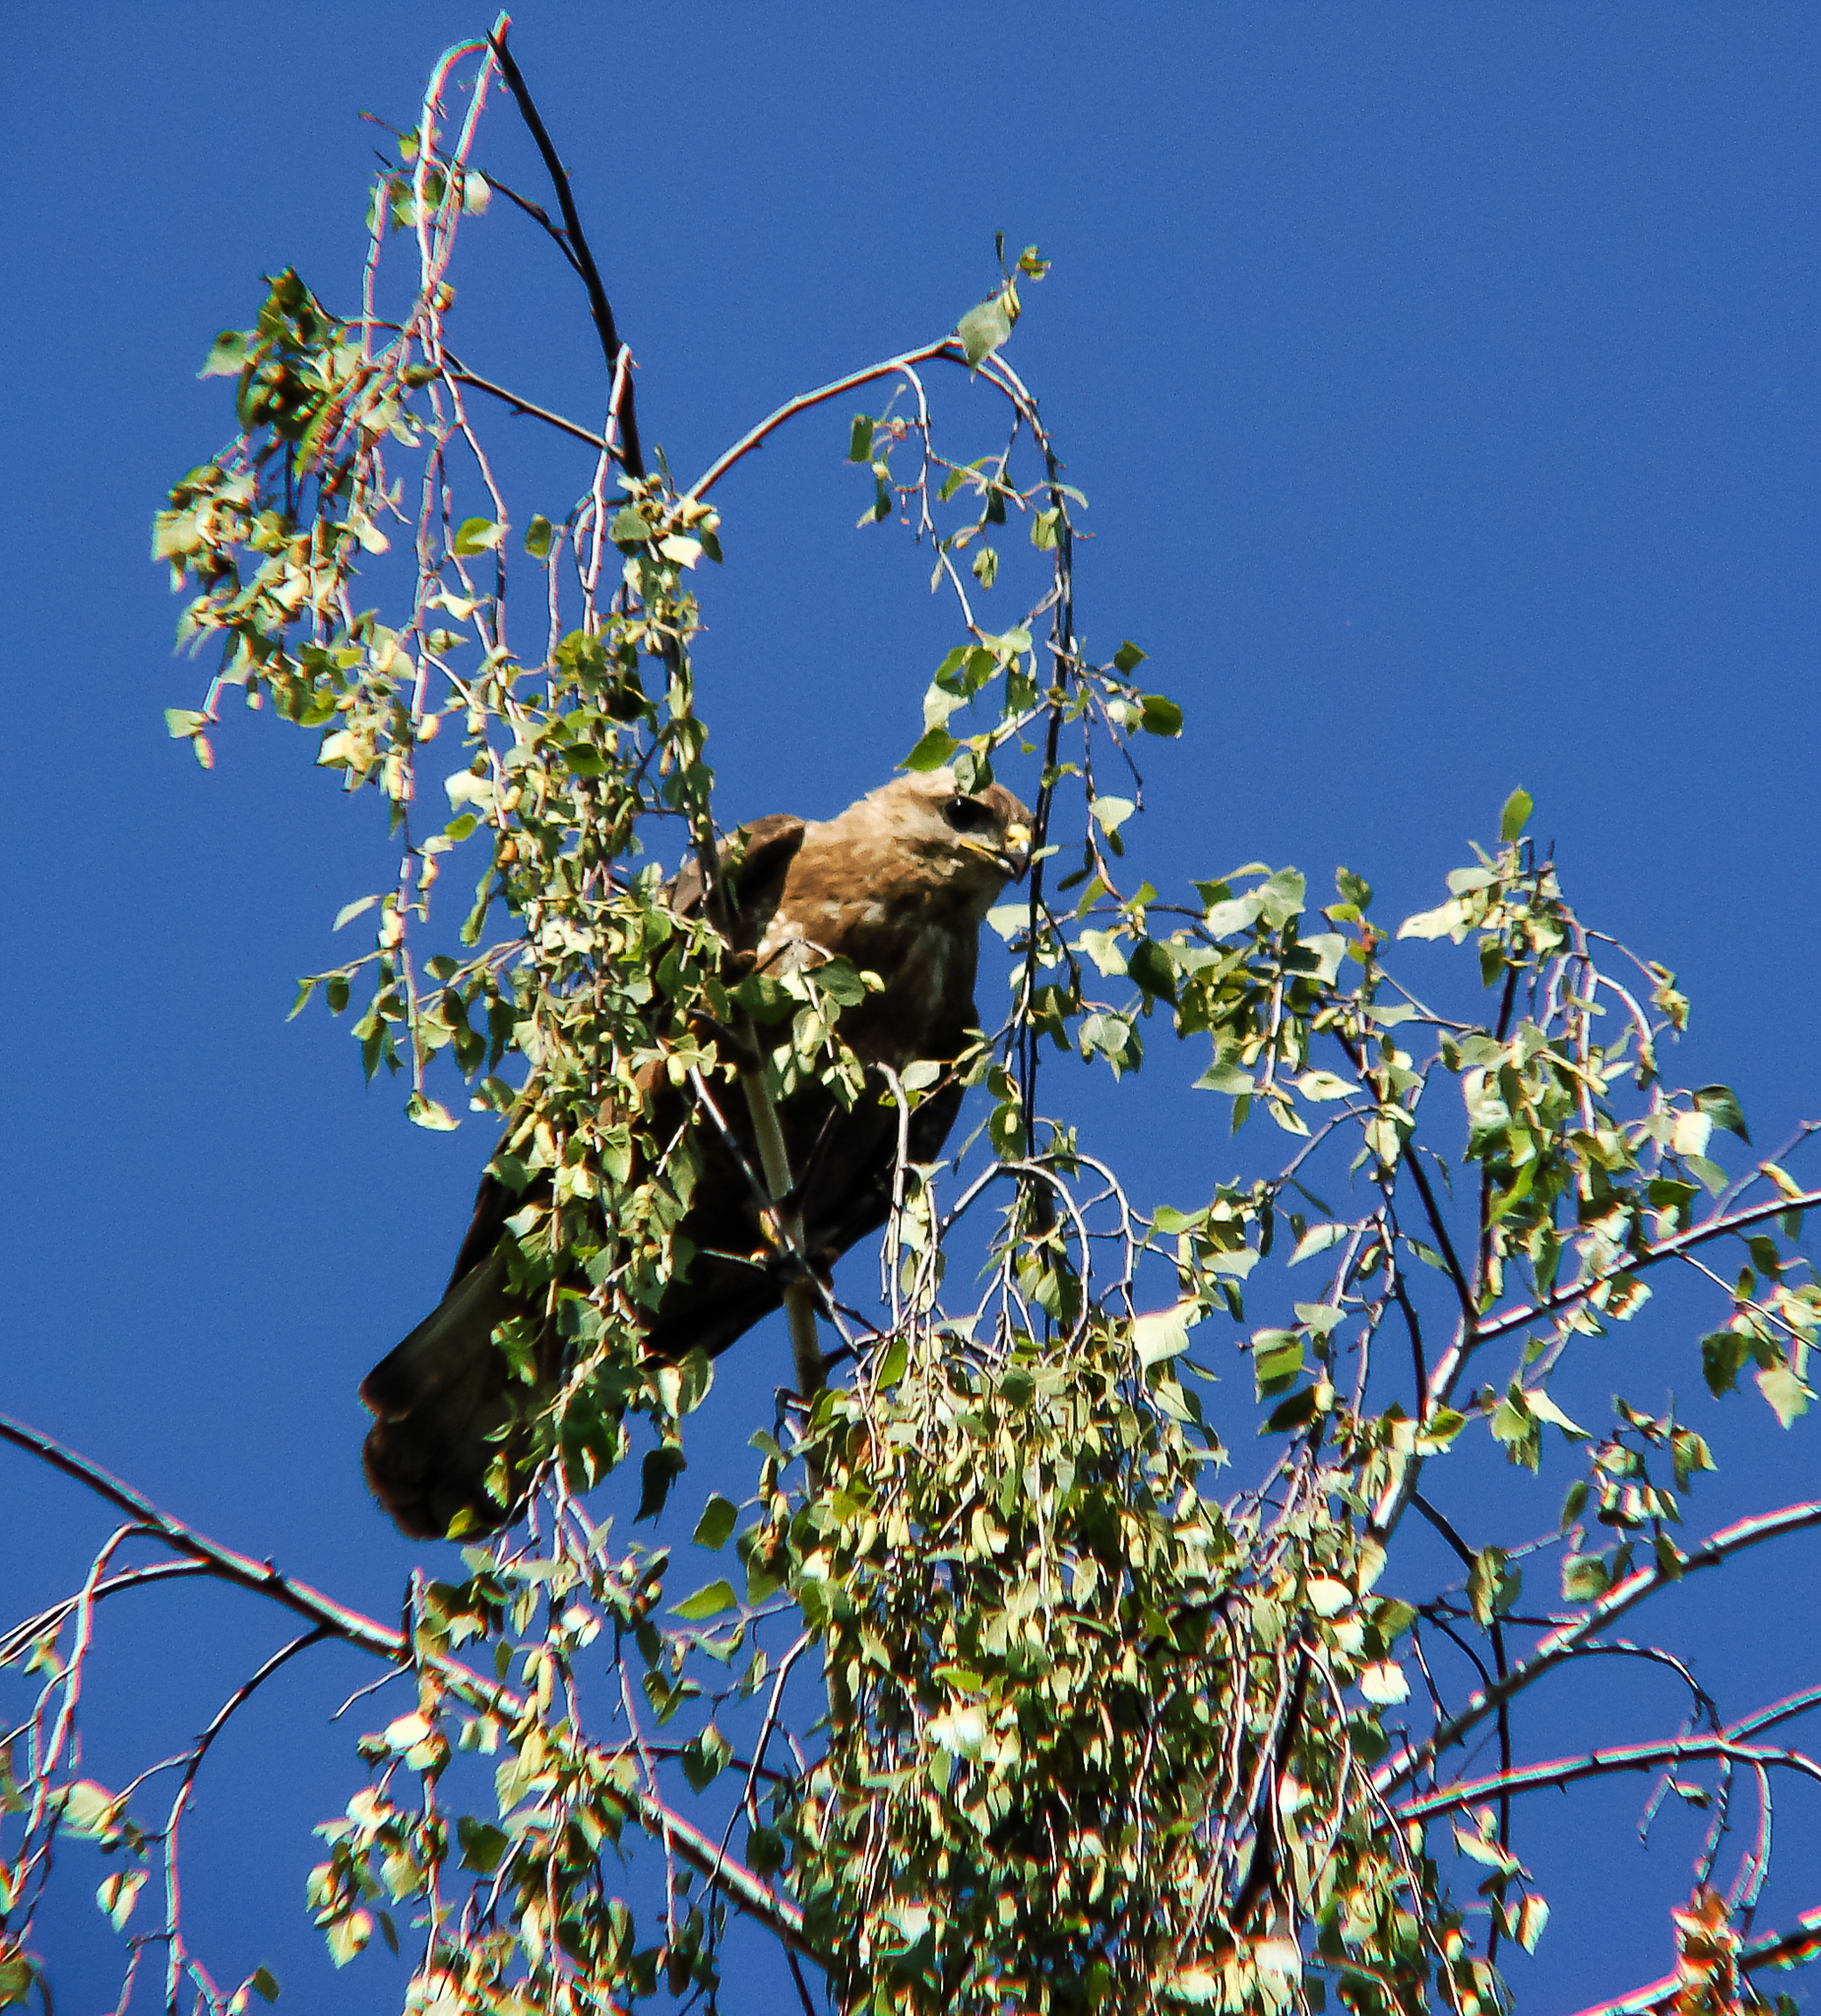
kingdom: Animalia
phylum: Chordata
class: Aves
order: Accipitriformes
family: Accipitridae
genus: Buteo
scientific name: Buteo buteo
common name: Common buzzard
